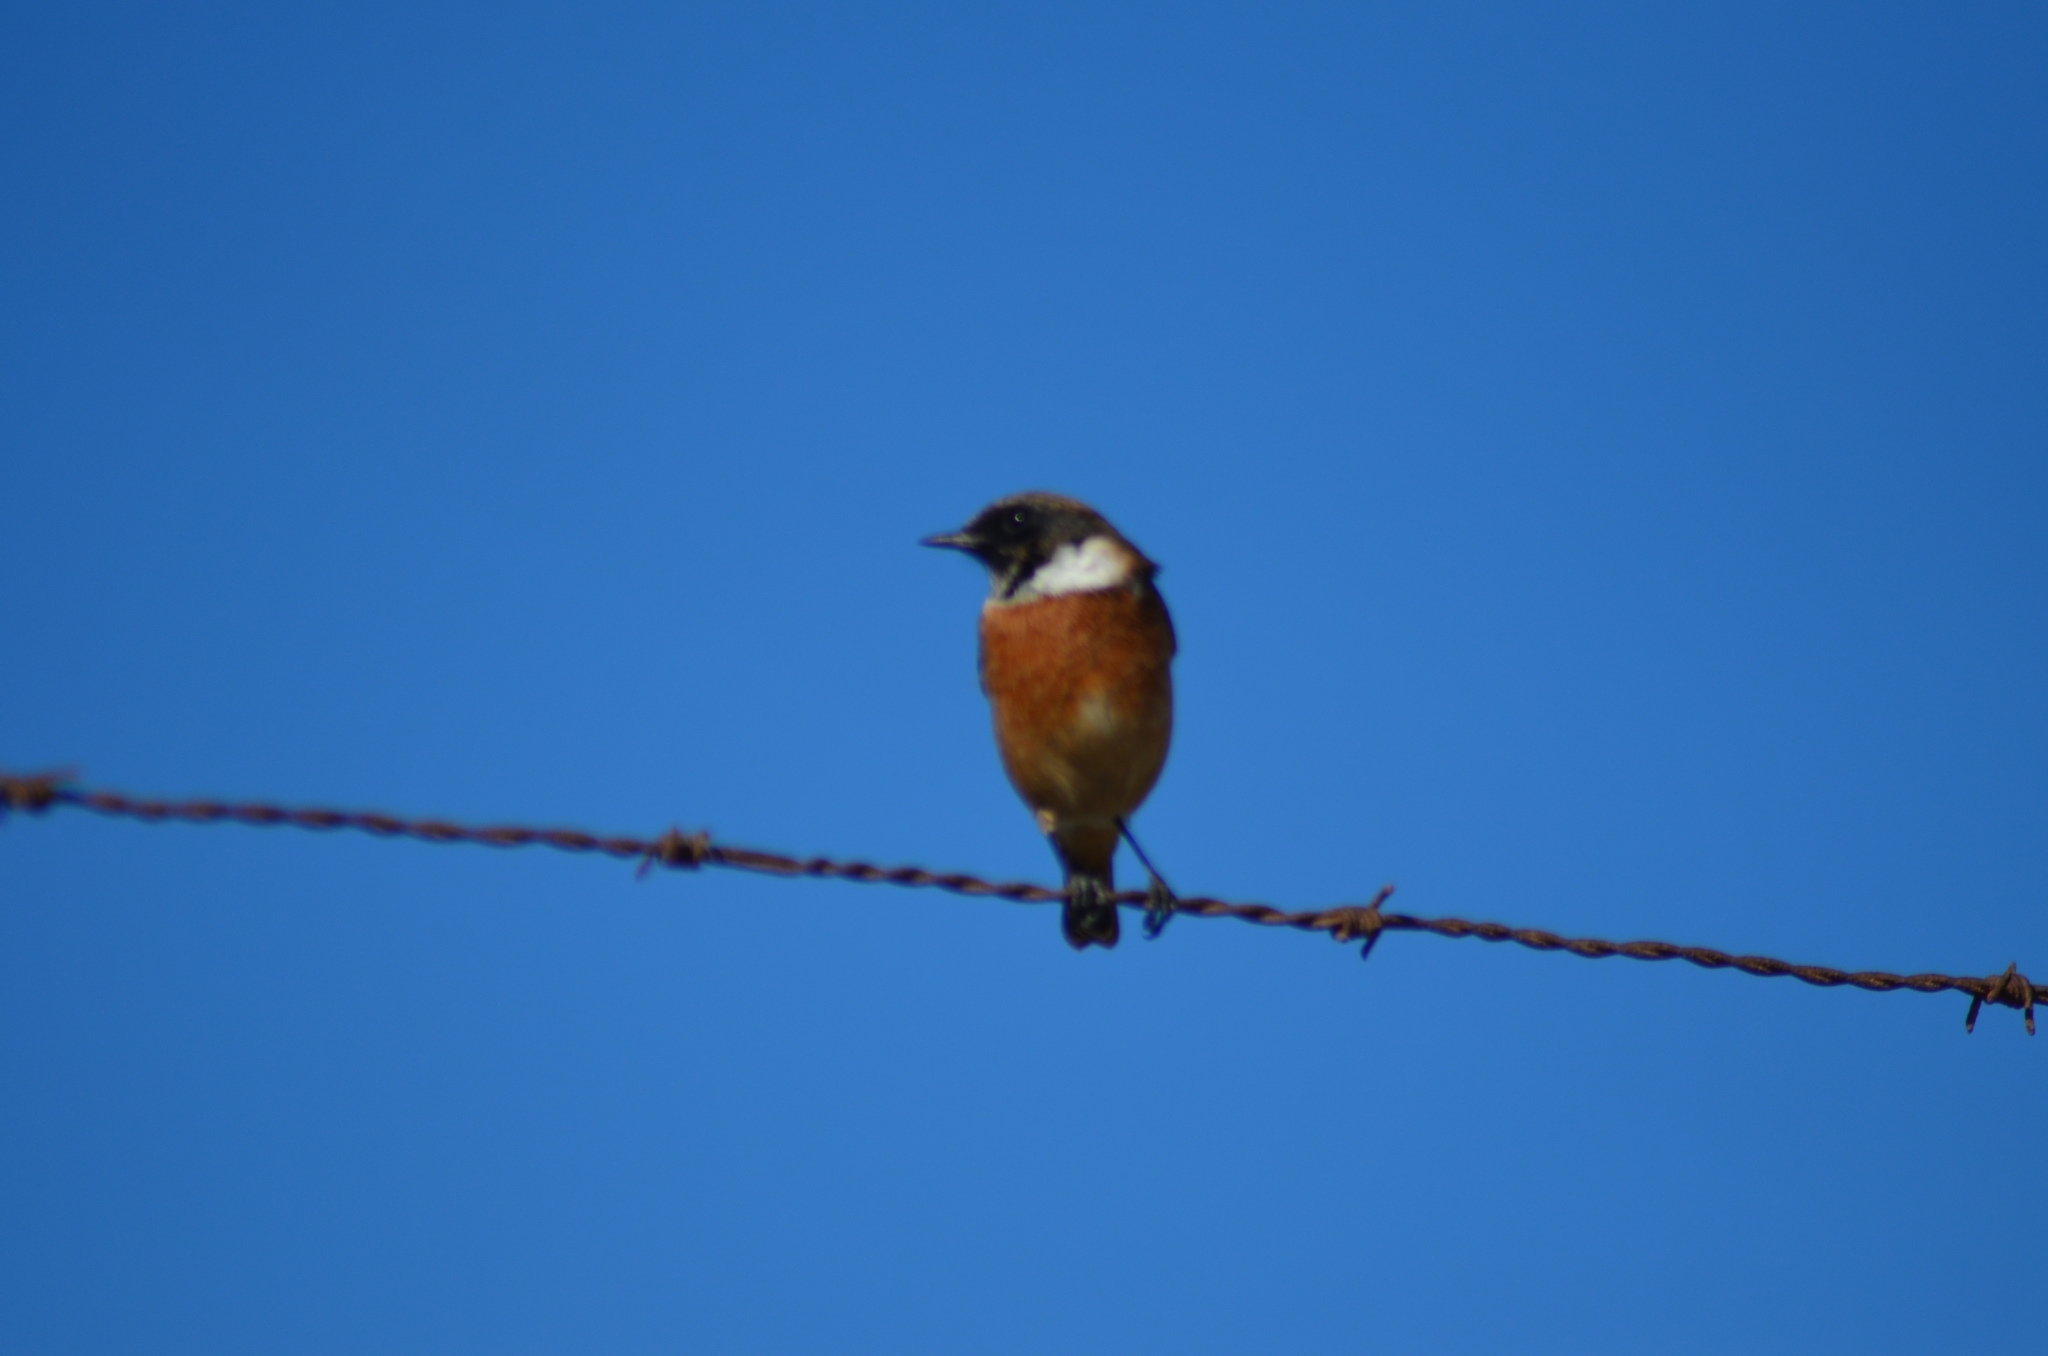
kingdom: Animalia
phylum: Chordata
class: Aves
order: Passeriformes
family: Muscicapidae
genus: Saxicola
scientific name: Saxicola rubicola
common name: European stonechat
